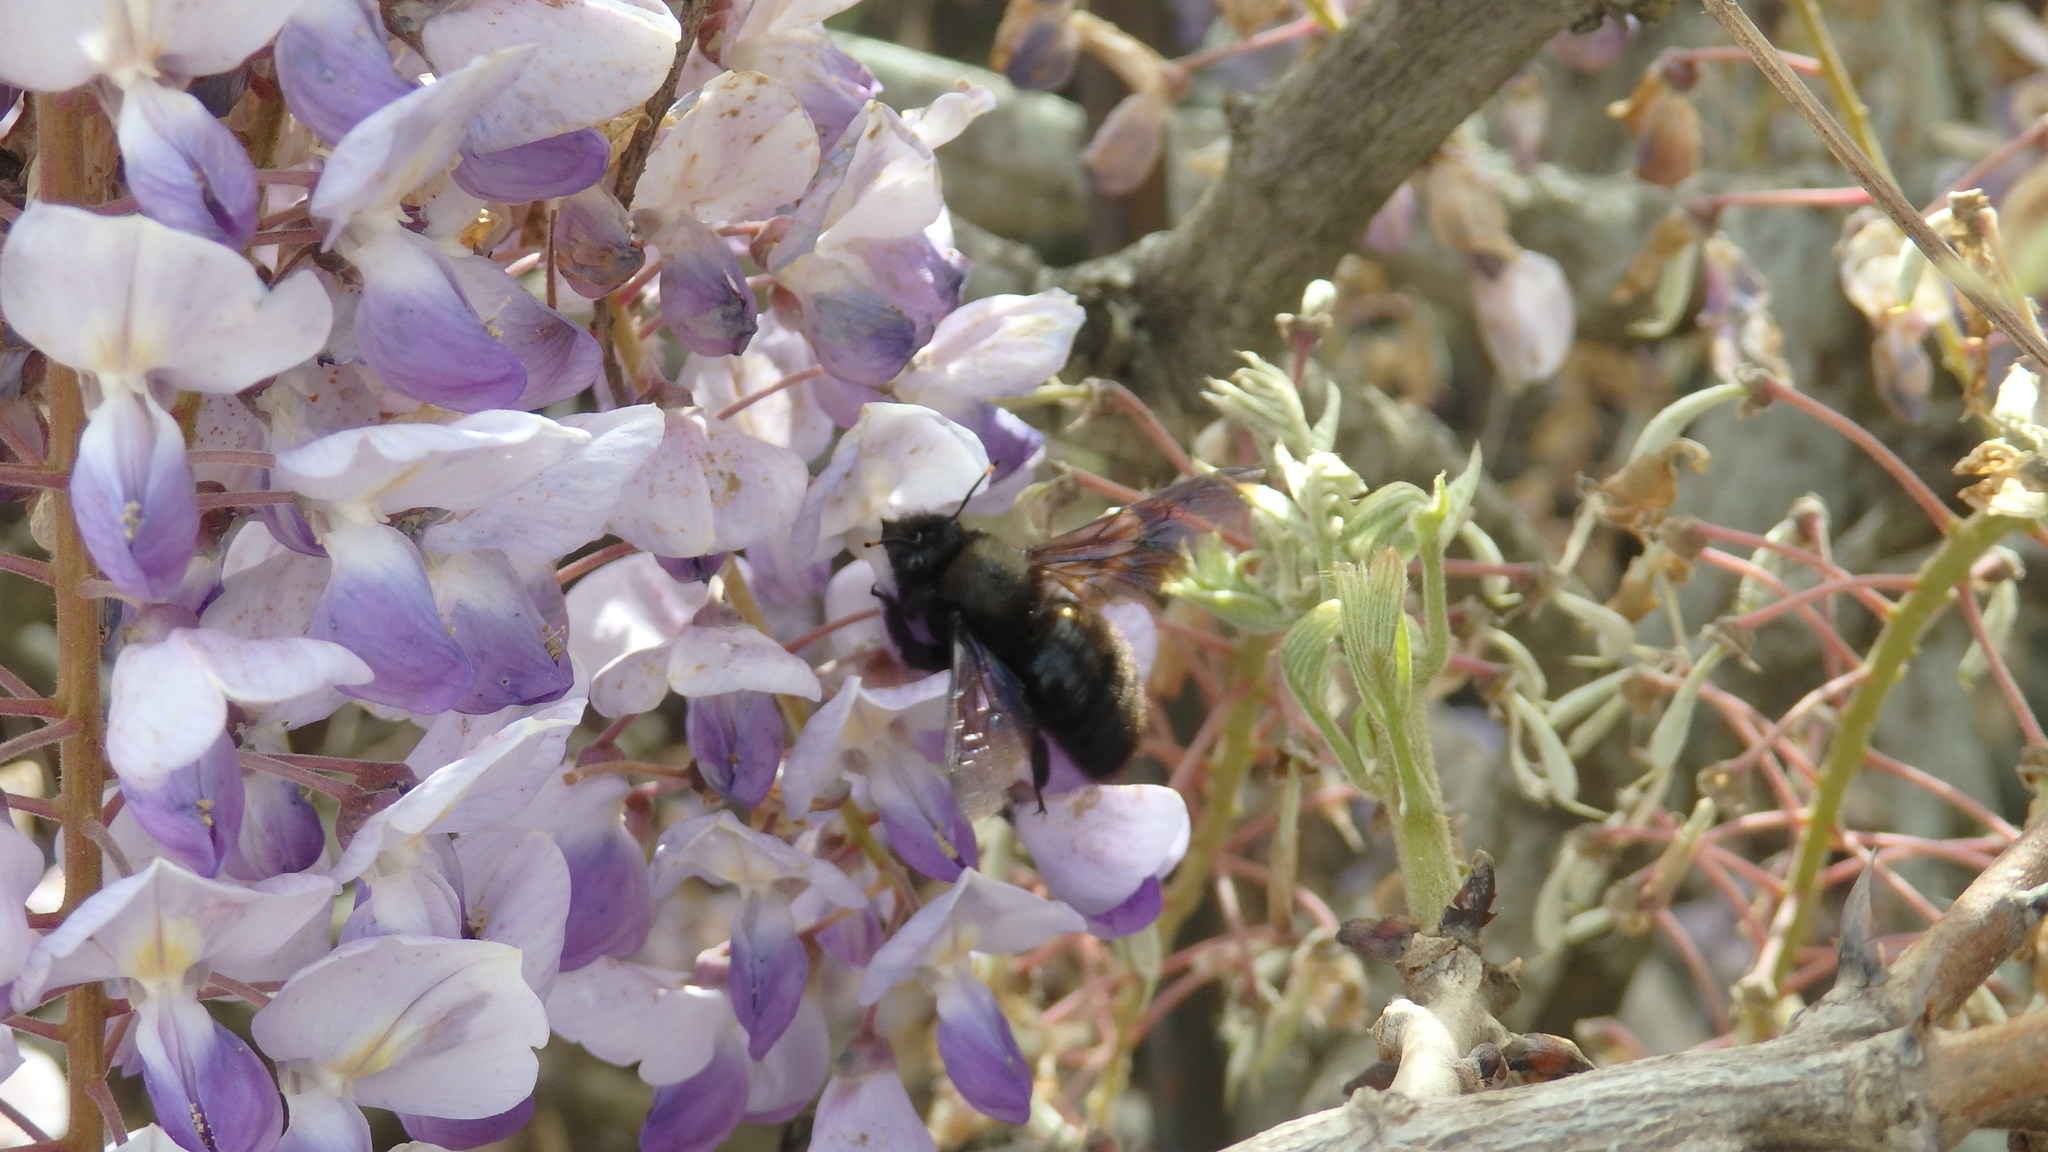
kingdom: Animalia
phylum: Arthropoda
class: Insecta
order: Hymenoptera
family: Apidae
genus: Xylocopa
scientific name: Xylocopa violacea
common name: Violet carpenter bee
